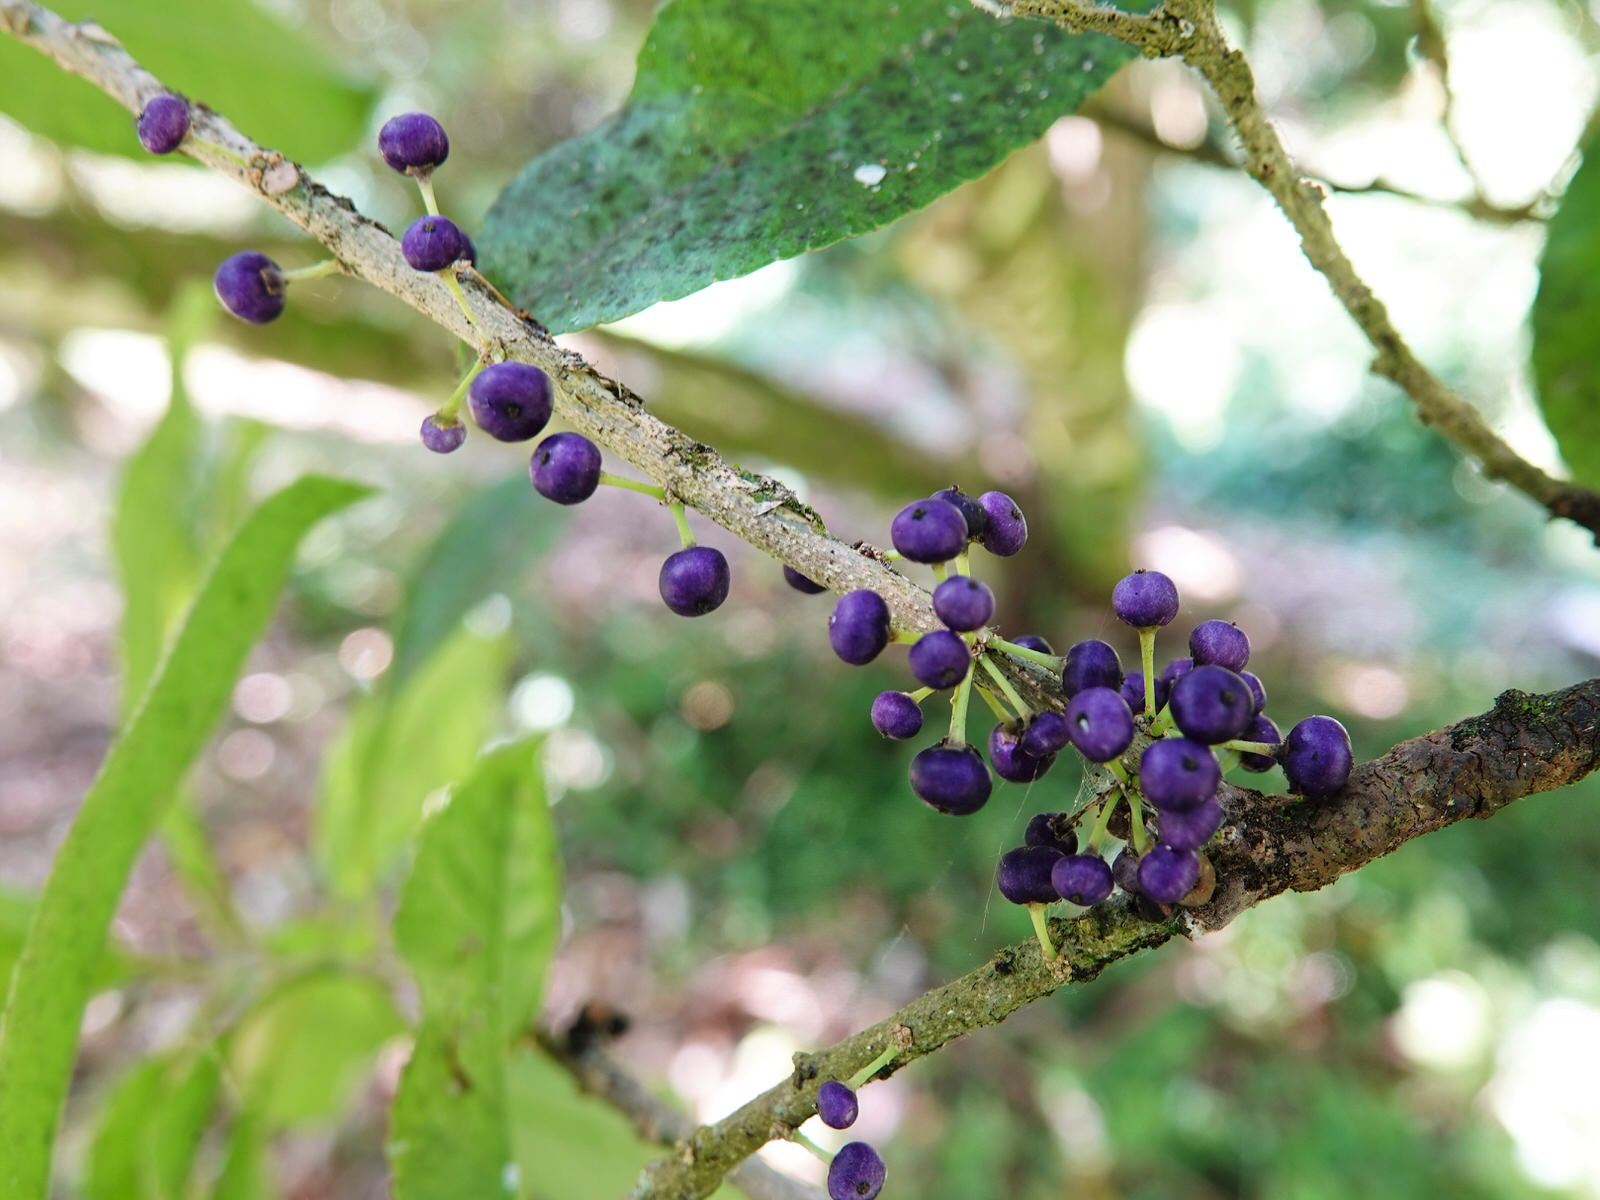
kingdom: Plantae
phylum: Tracheophyta
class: Magnoliopsida
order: Malpighiales
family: Violaceae
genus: Melicytus
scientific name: Melicytus ramiflorus
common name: Mahoe
